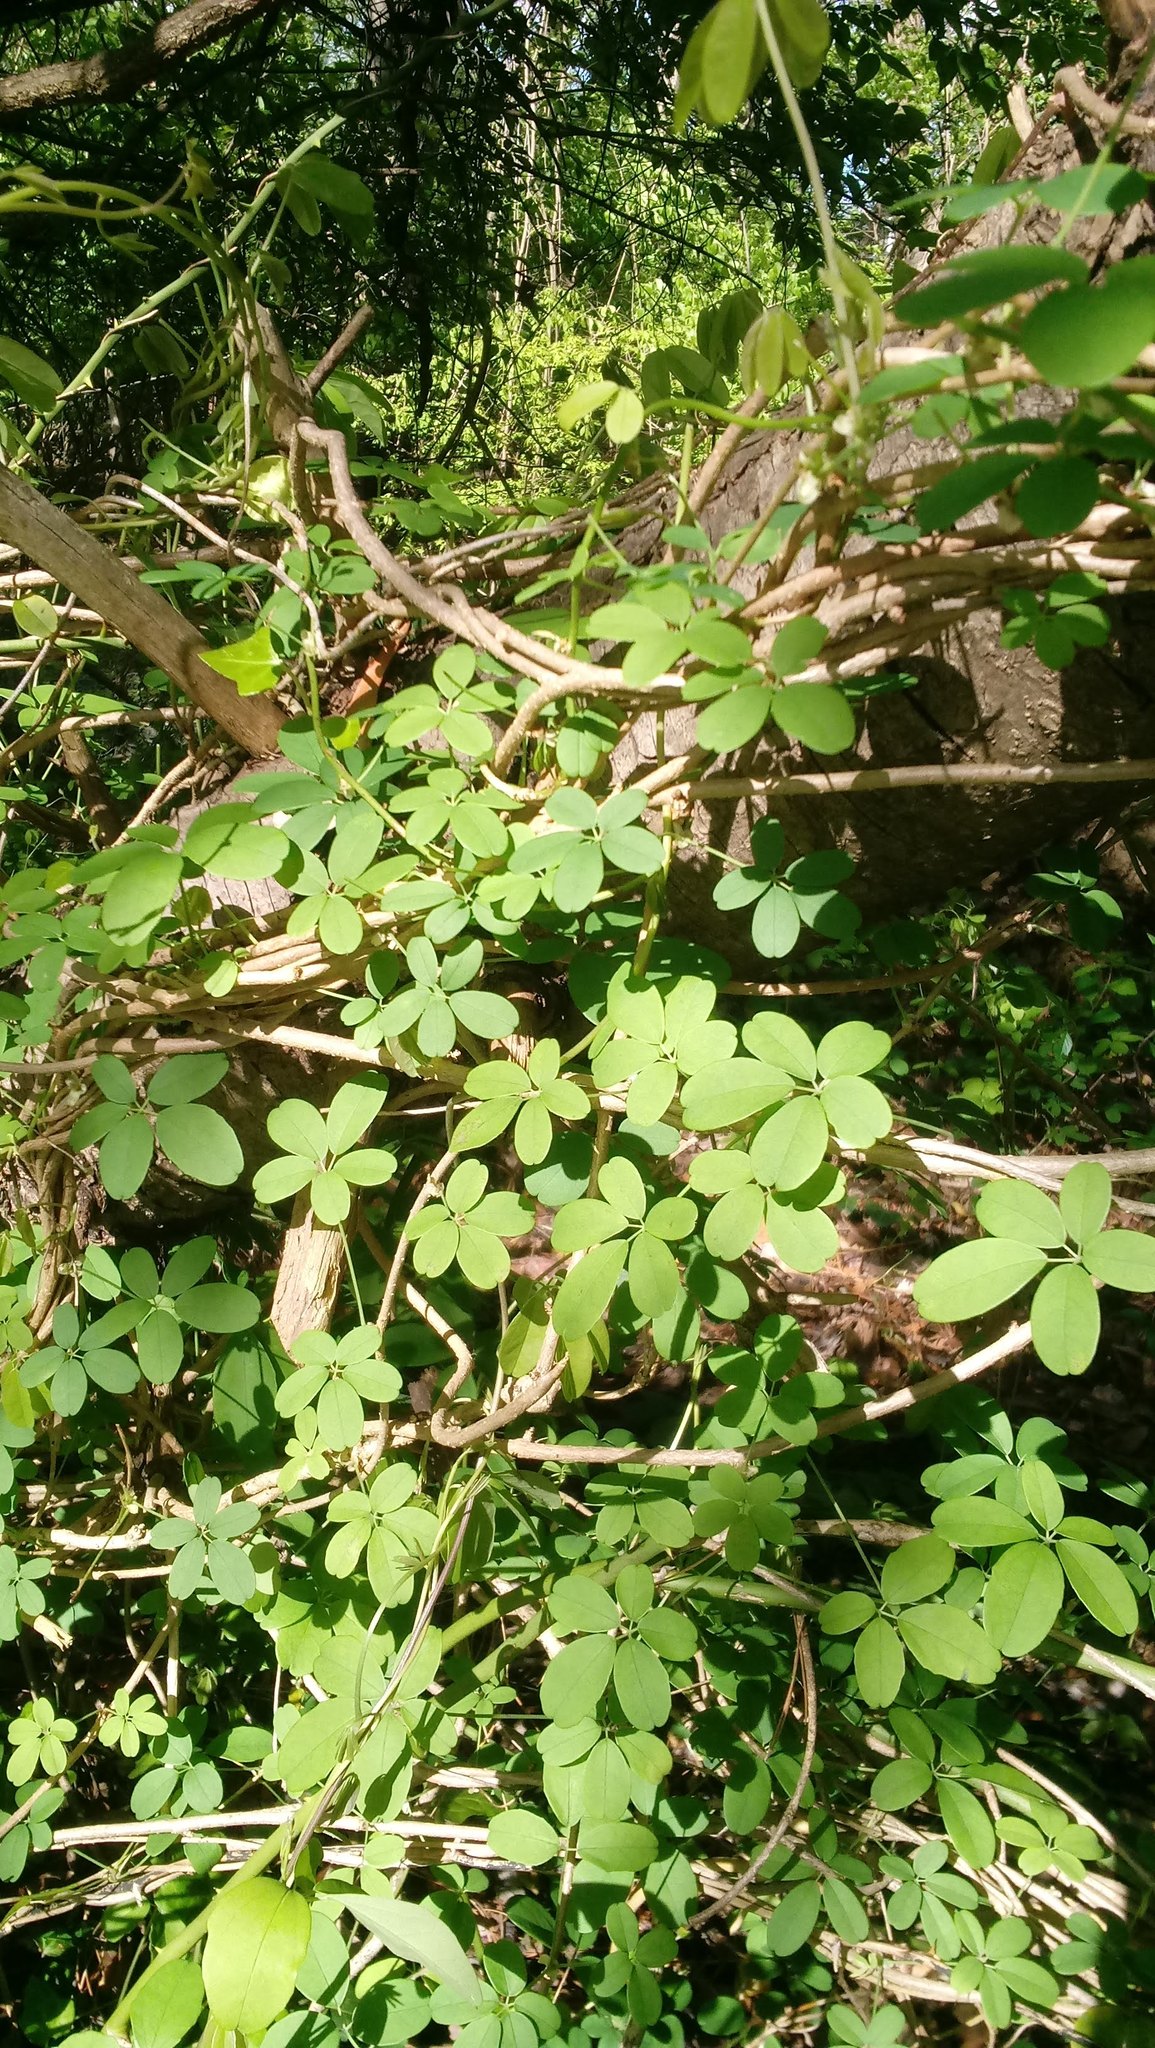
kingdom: Plantae
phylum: Tracheophyta
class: Magnoliopsida
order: Ranunculales
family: Lardizabalaceae
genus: Akebia
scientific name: Akebia quinata
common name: Five-leaf akebia
